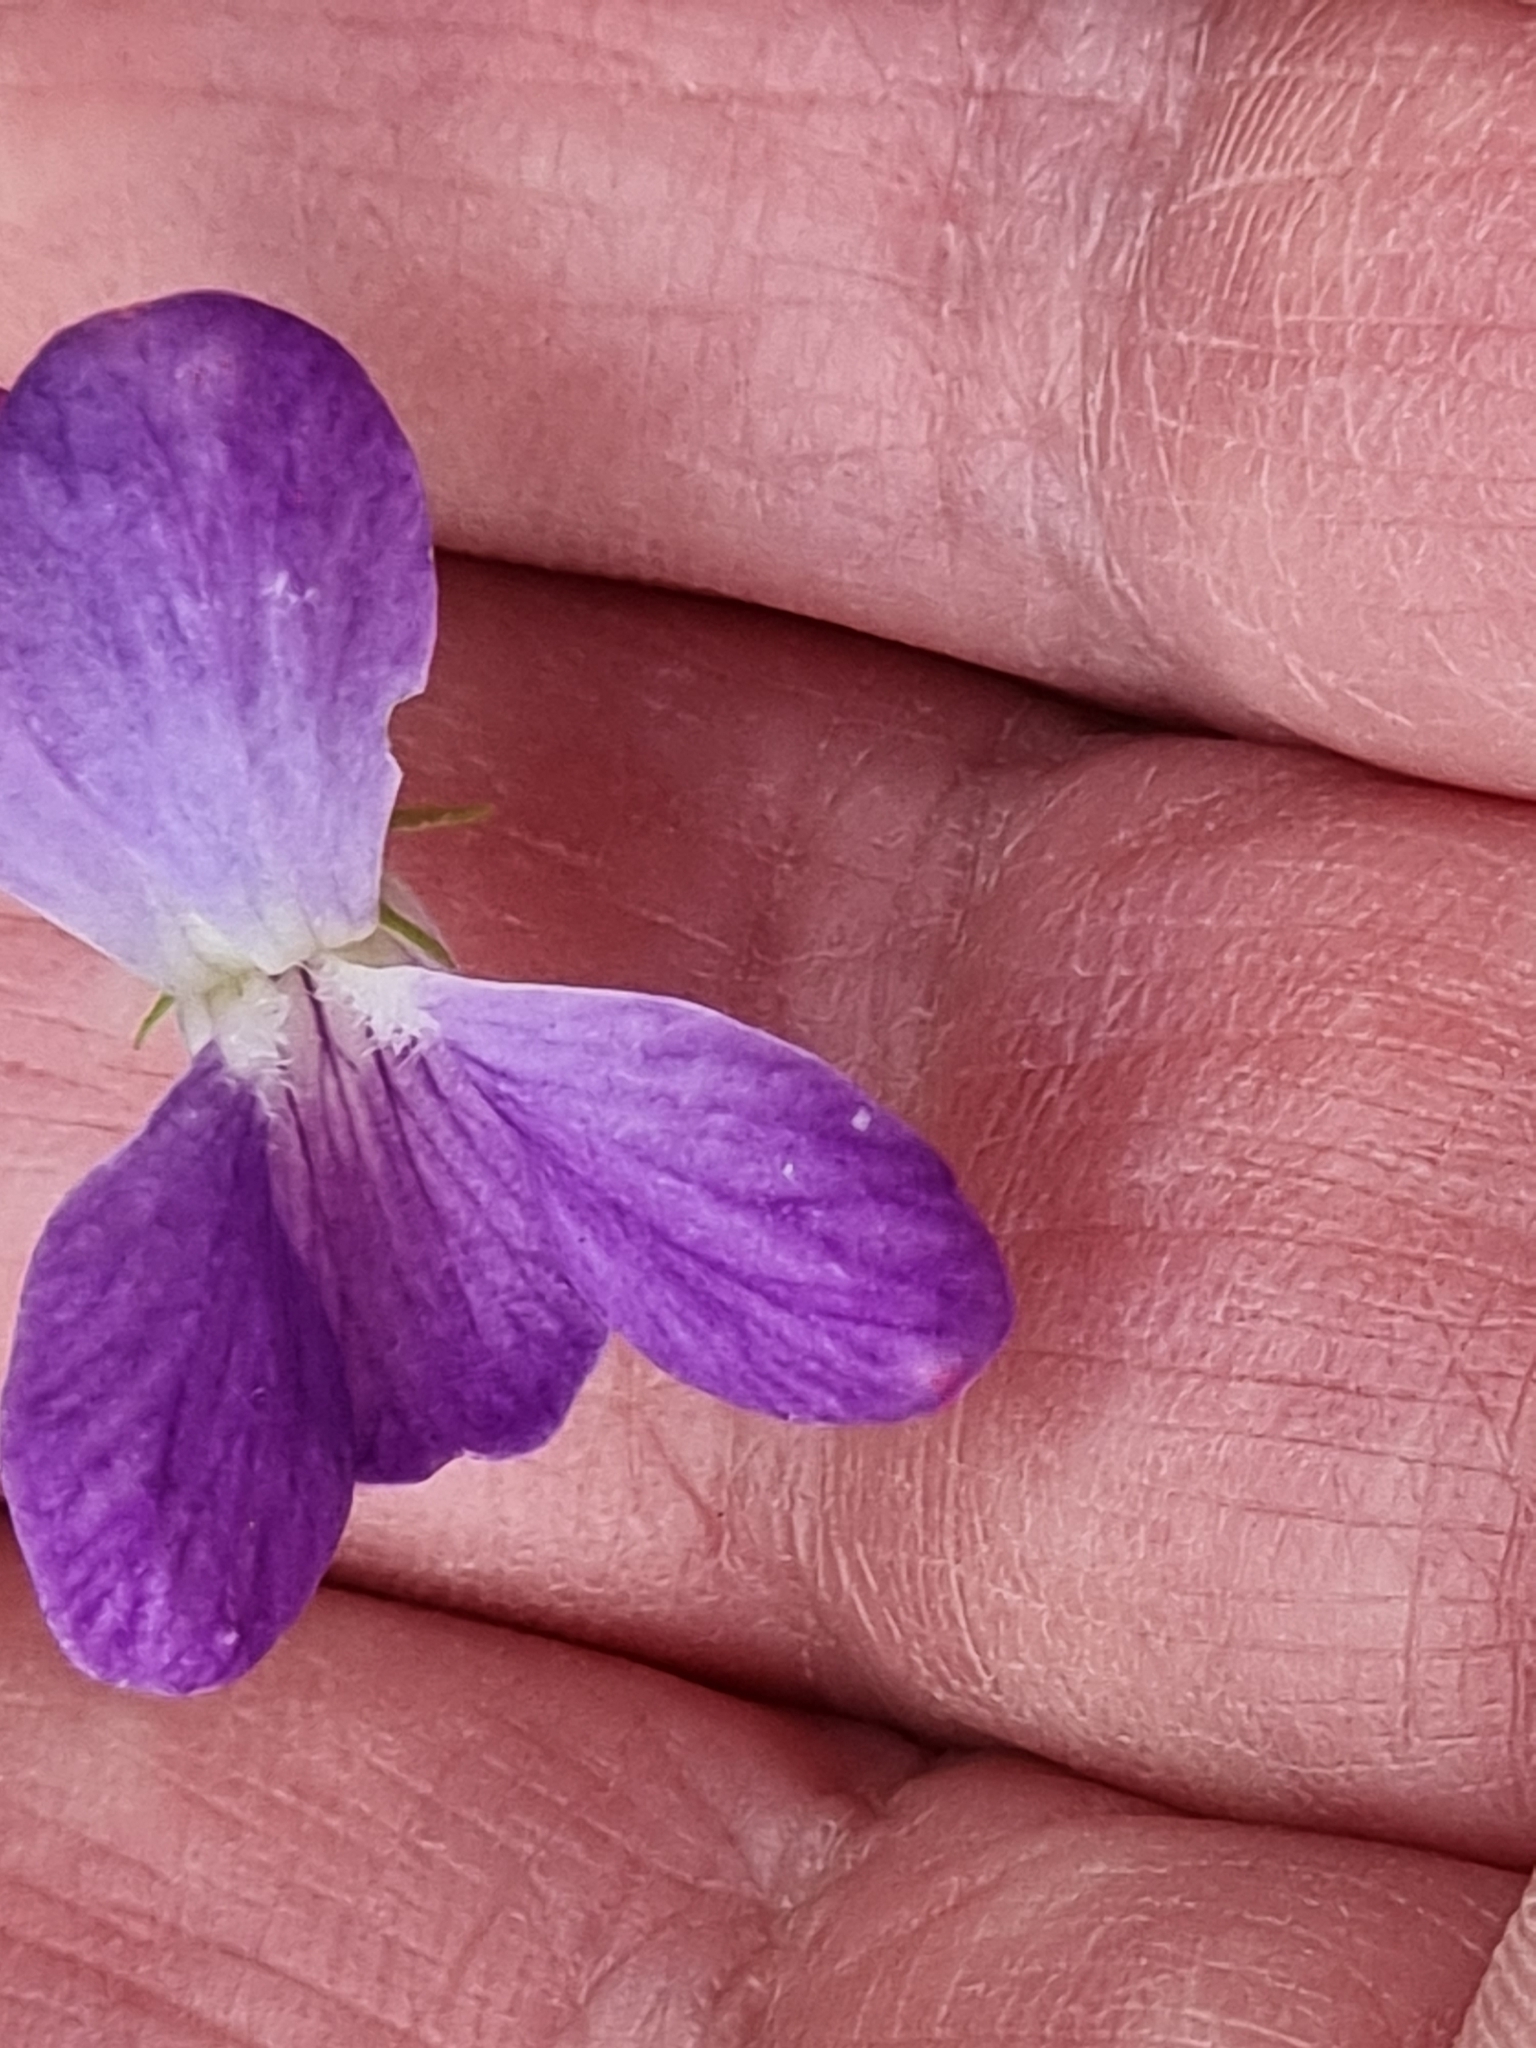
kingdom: Plantae
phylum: Tracheophyta
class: Magnoliopsida
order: Malpighiales
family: Violaceae
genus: Viola
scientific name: Viola betonicifolia
